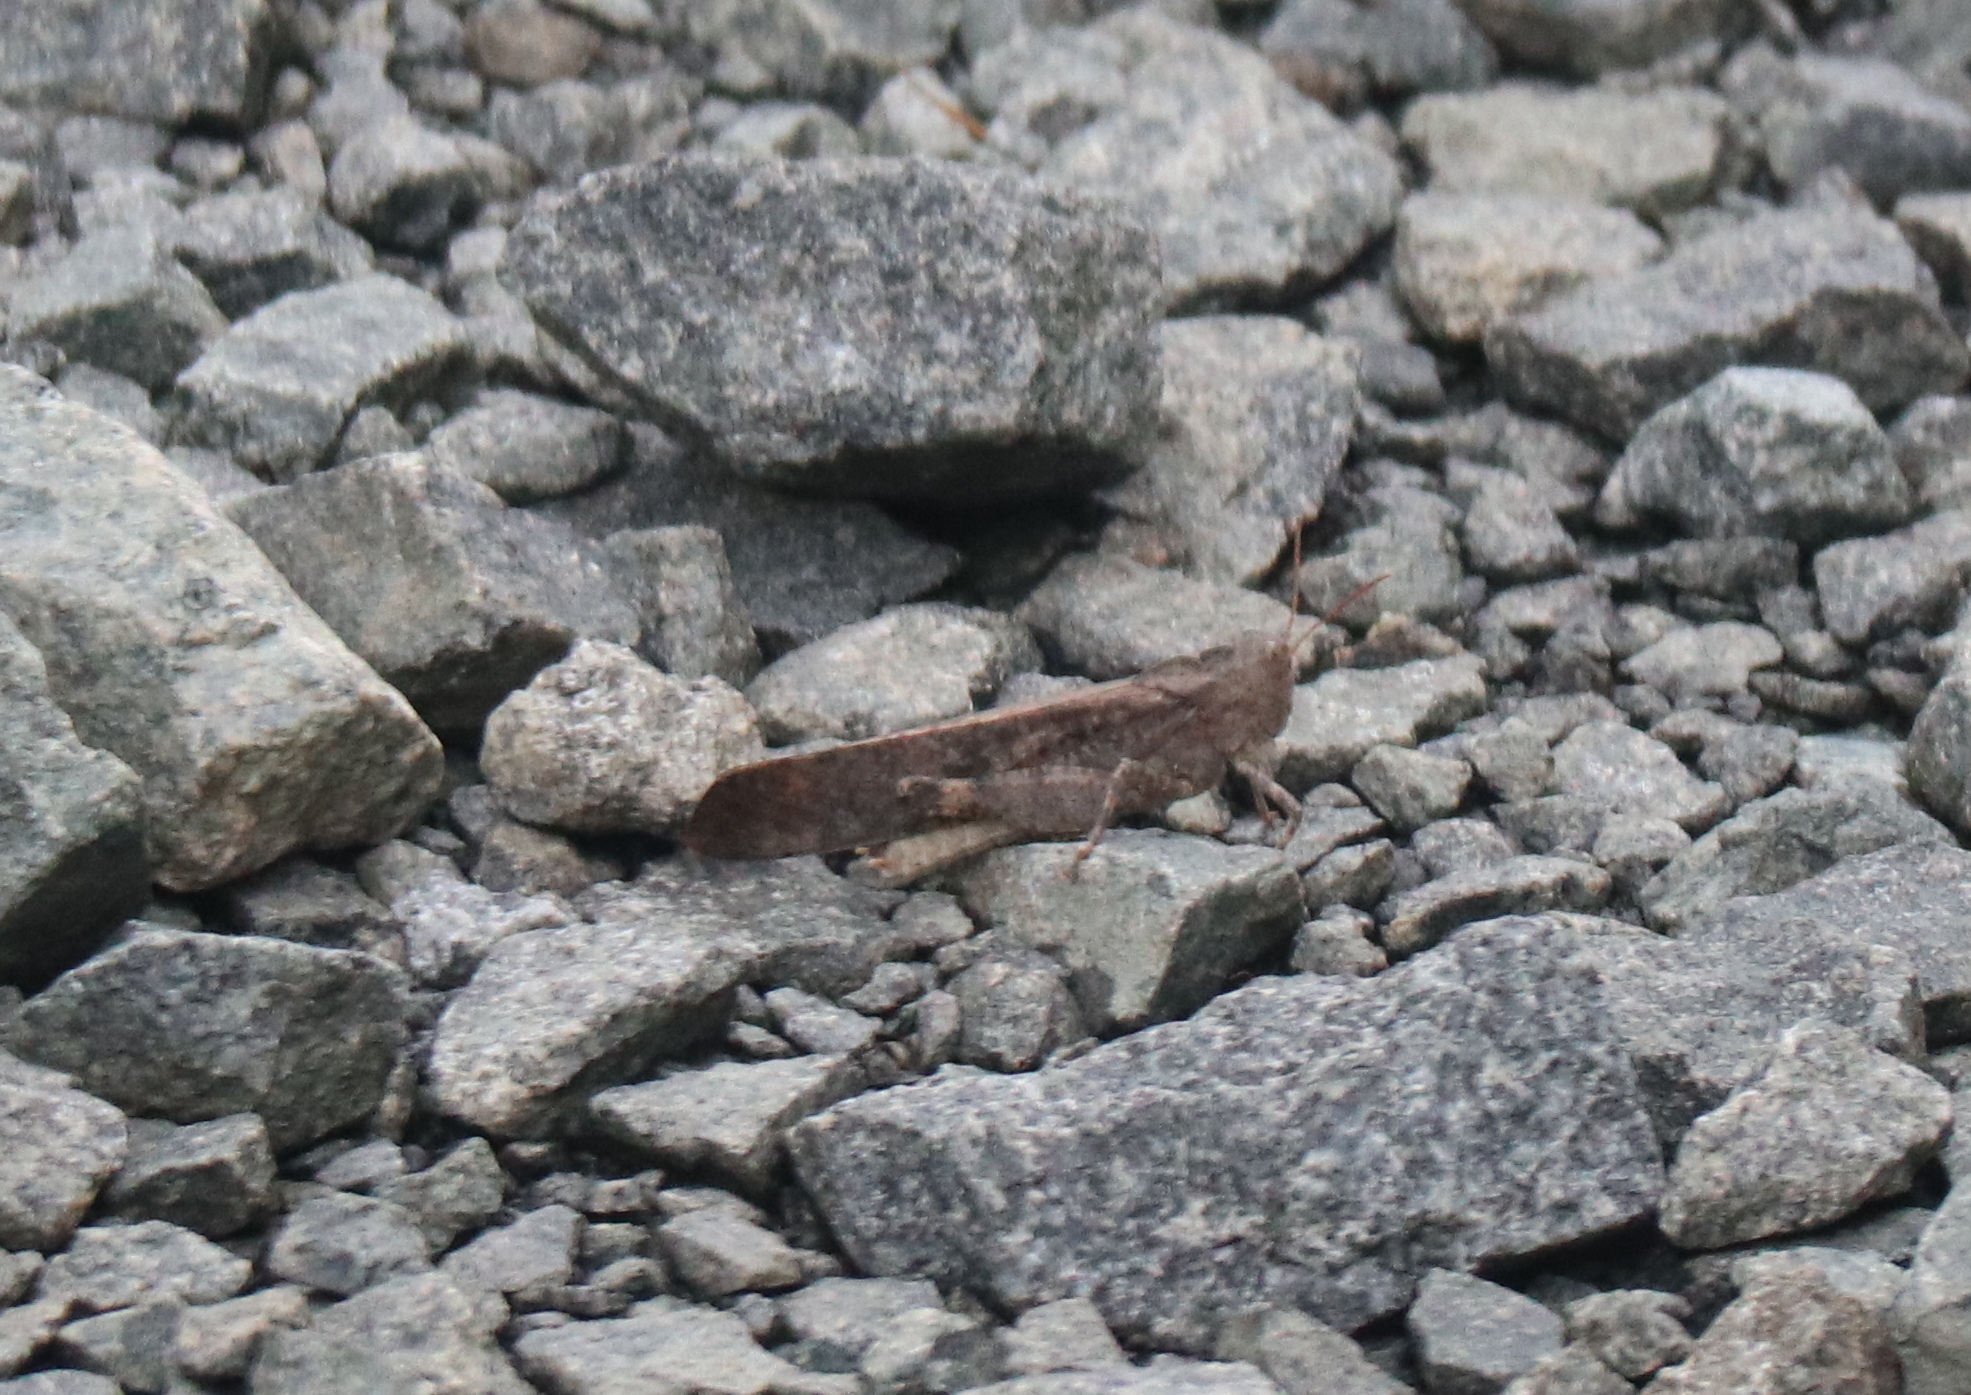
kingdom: Animalia
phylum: Arthropoda
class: Insecta
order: Orthoptera
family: Acrididae
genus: Dissosteira
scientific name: Dissosteira carolina
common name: Carolina grasshopper
